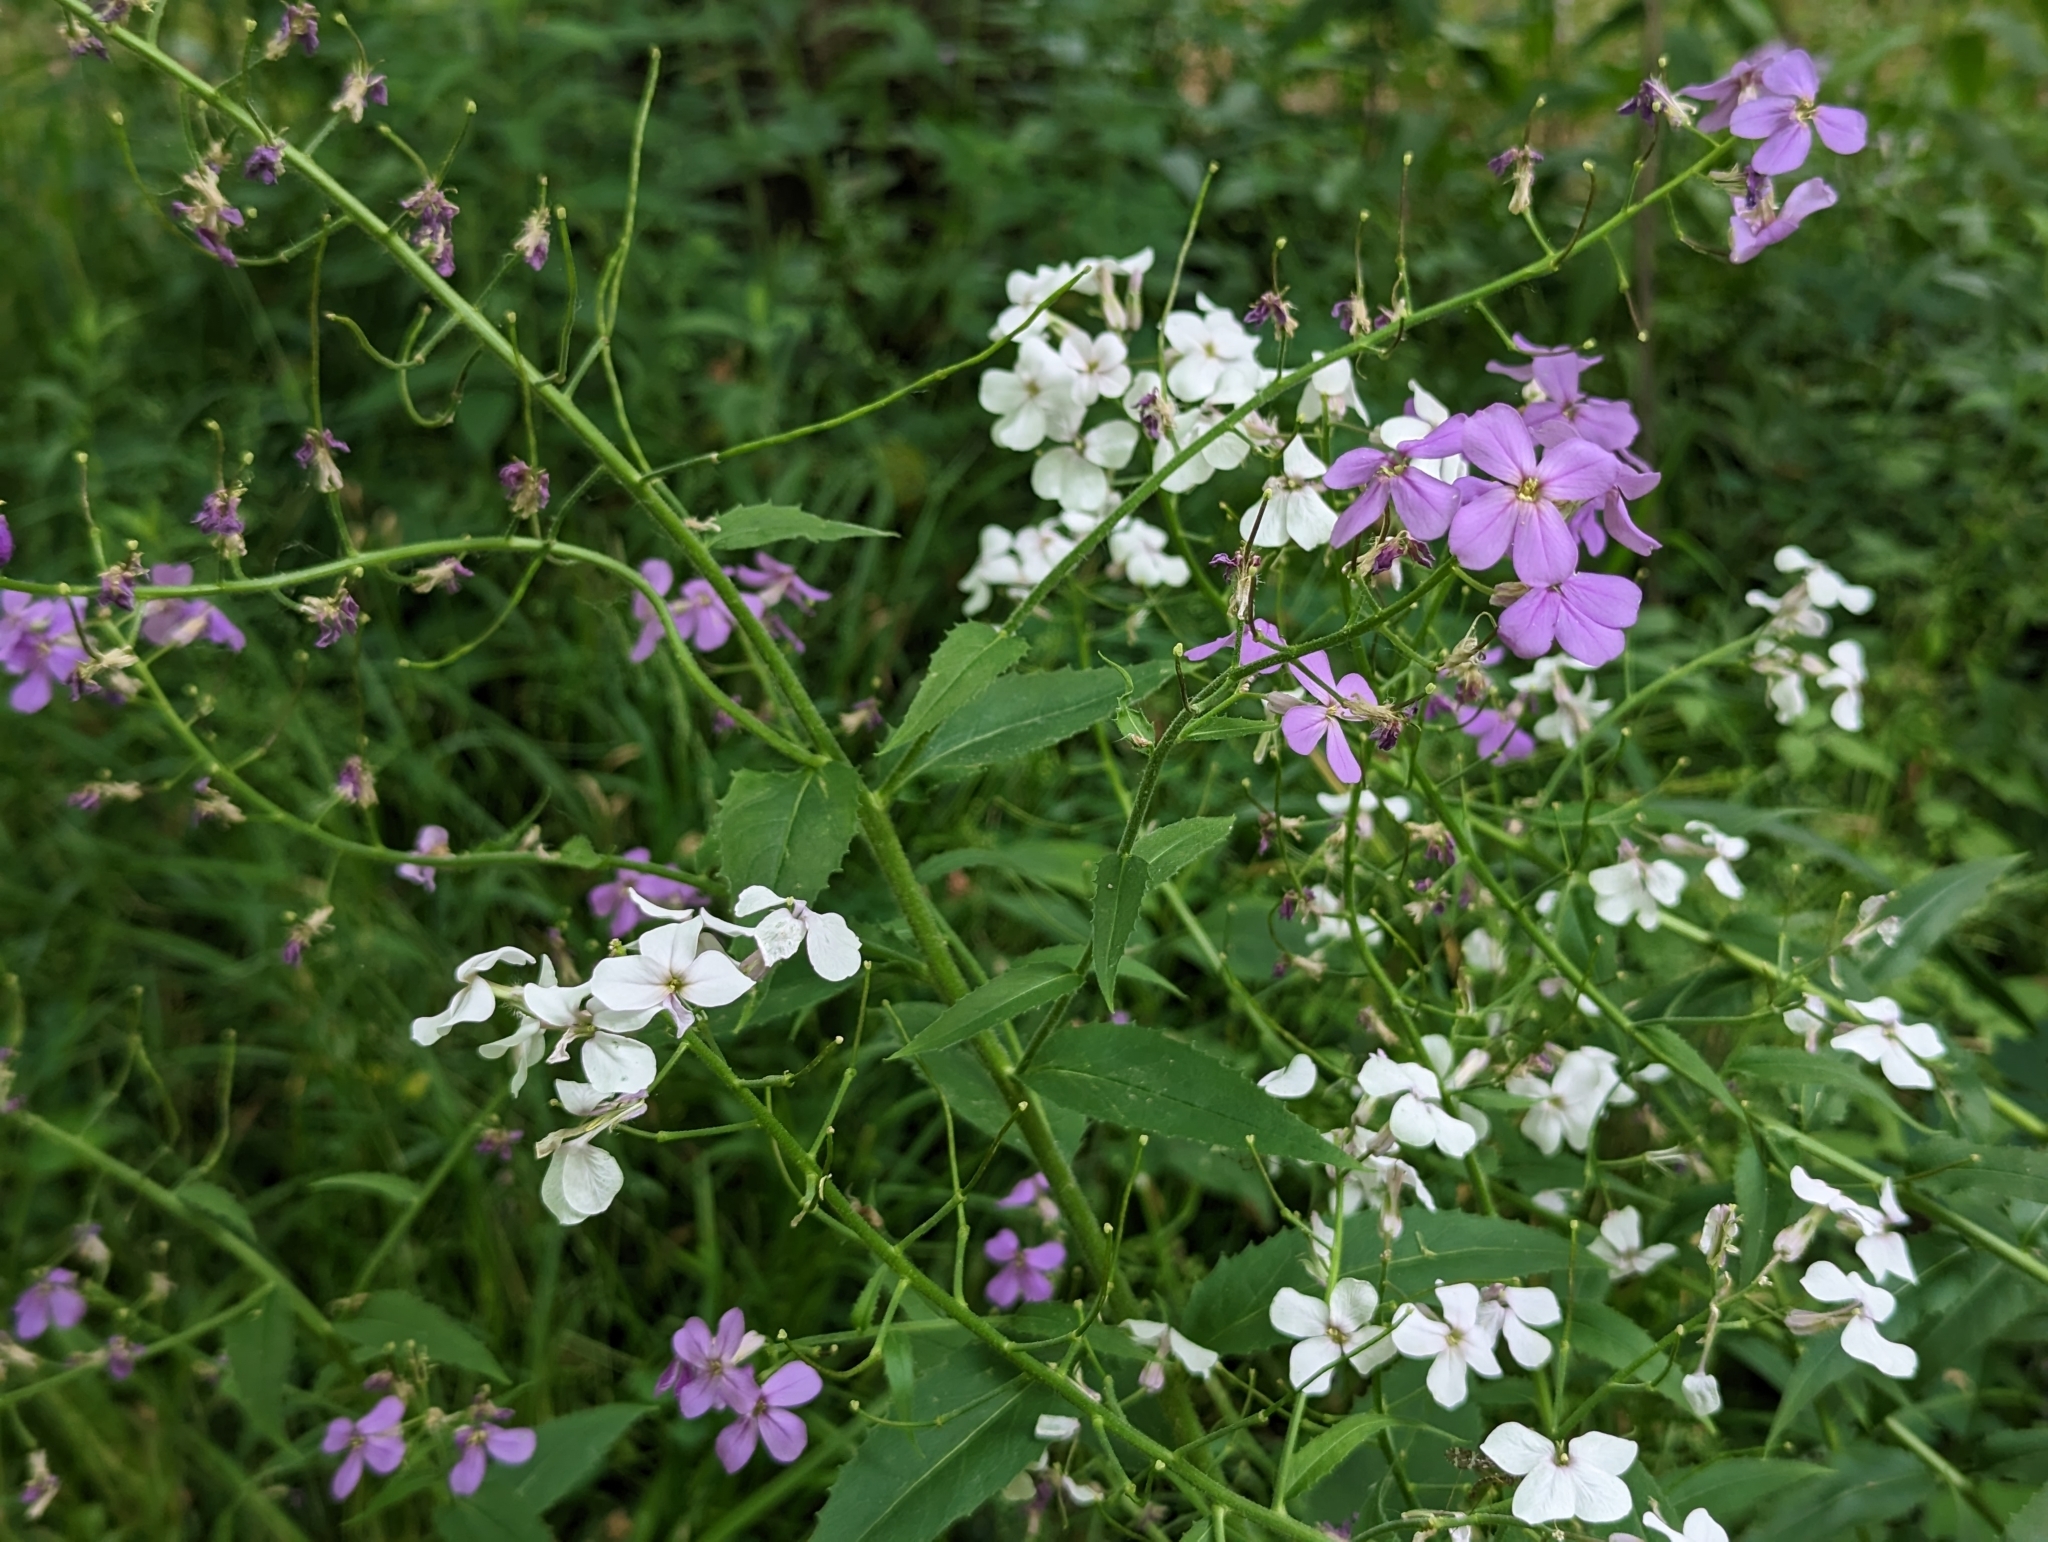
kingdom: Plantae
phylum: Tracheophyta
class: Magnoliopsida
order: Brassicales
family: Brassicaceae
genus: Hesperis
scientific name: Hesperis matronalis
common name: Dame's-violet
